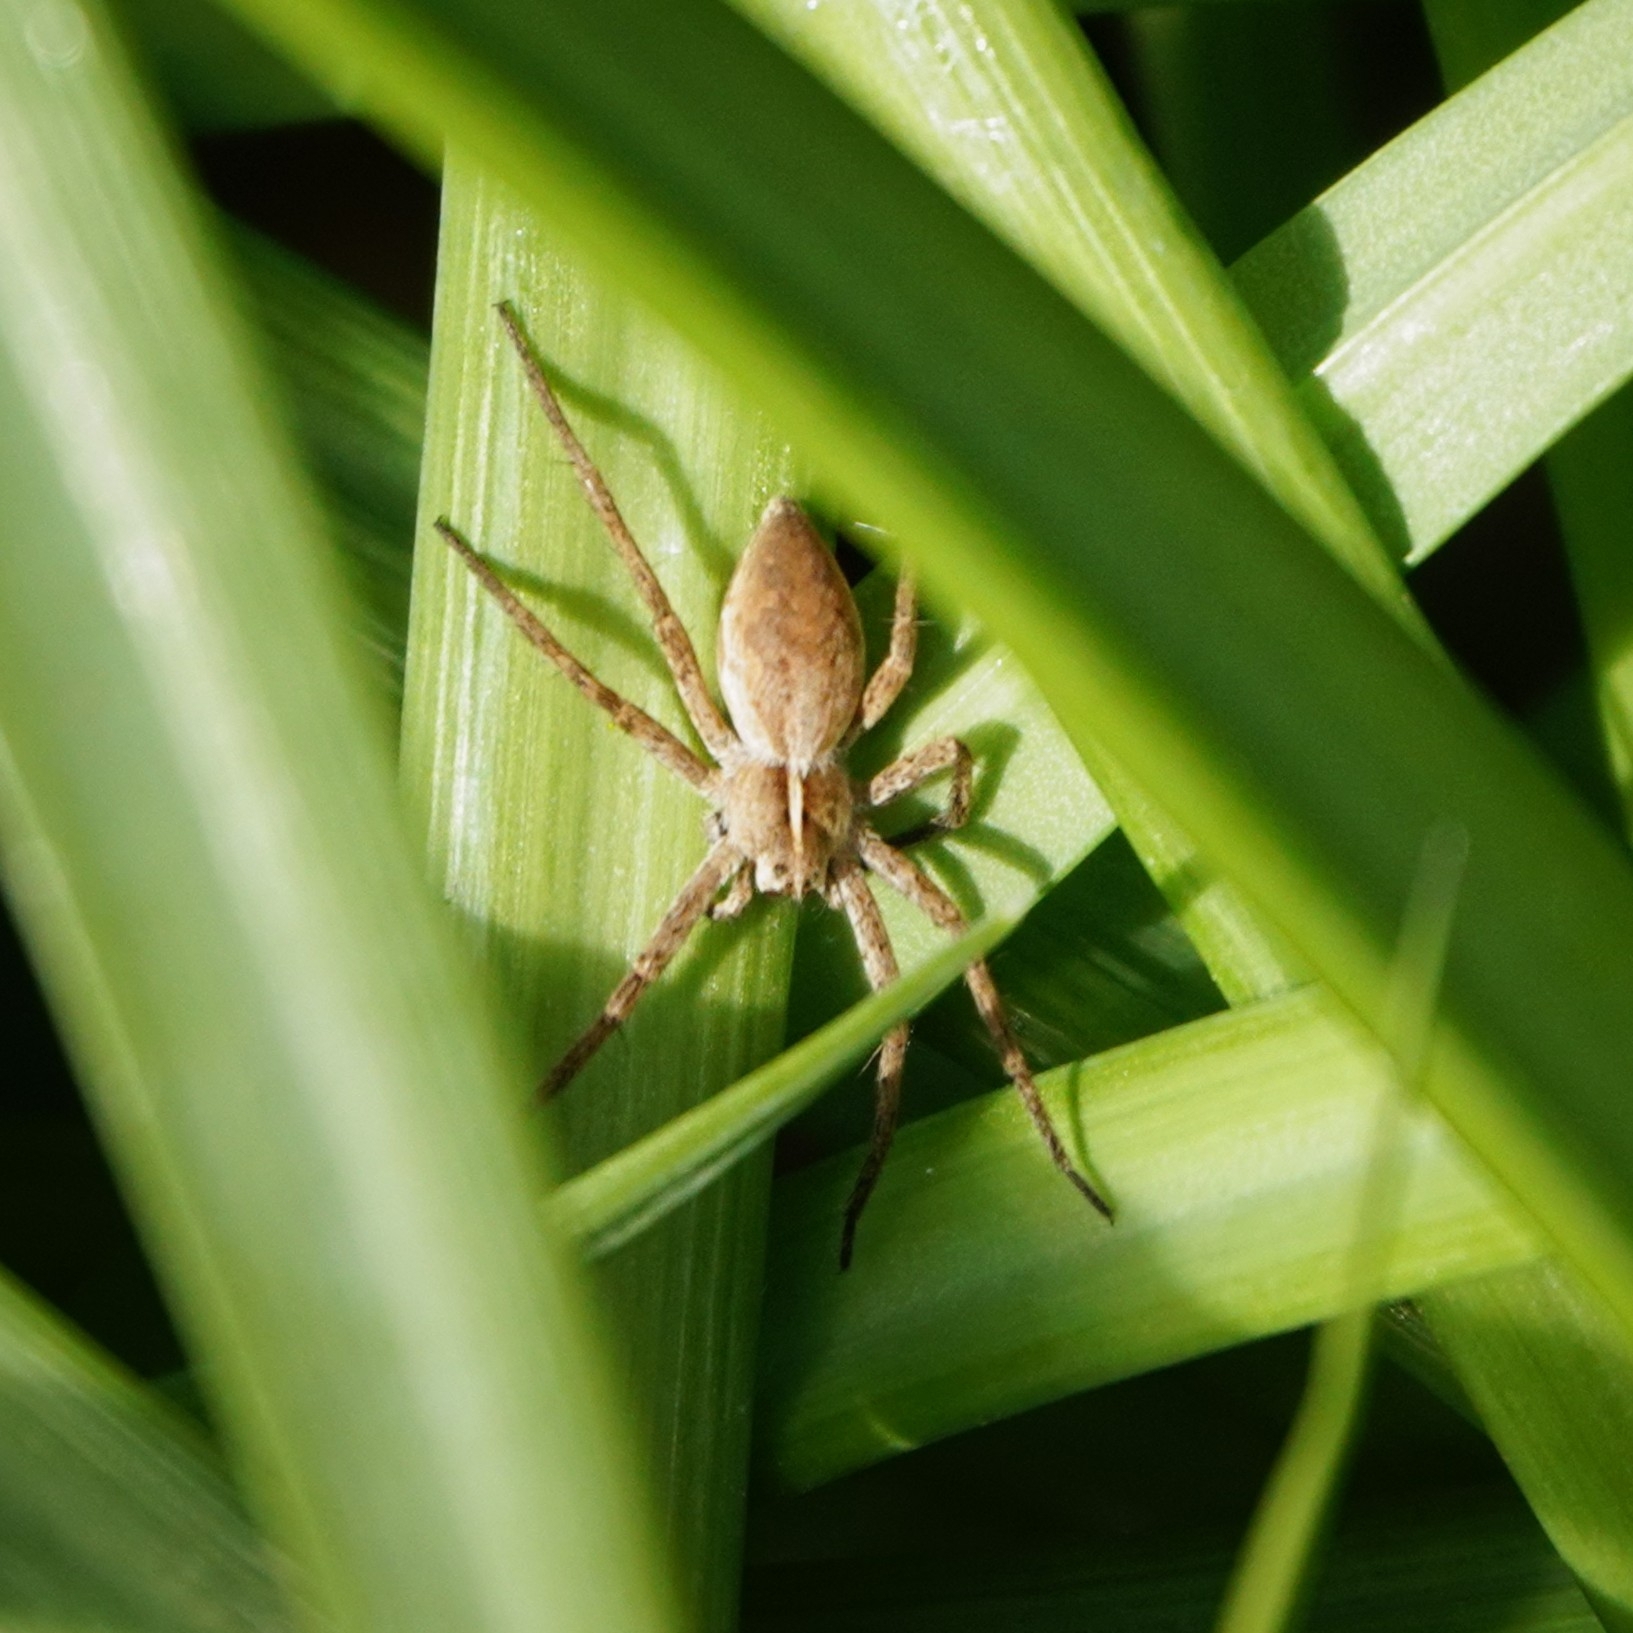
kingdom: Animalia
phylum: Arthropoda
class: Arachnida
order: Araneae
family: Pisauridae
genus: Pisaura
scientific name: Pisaura mirabilis
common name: Tent spider
